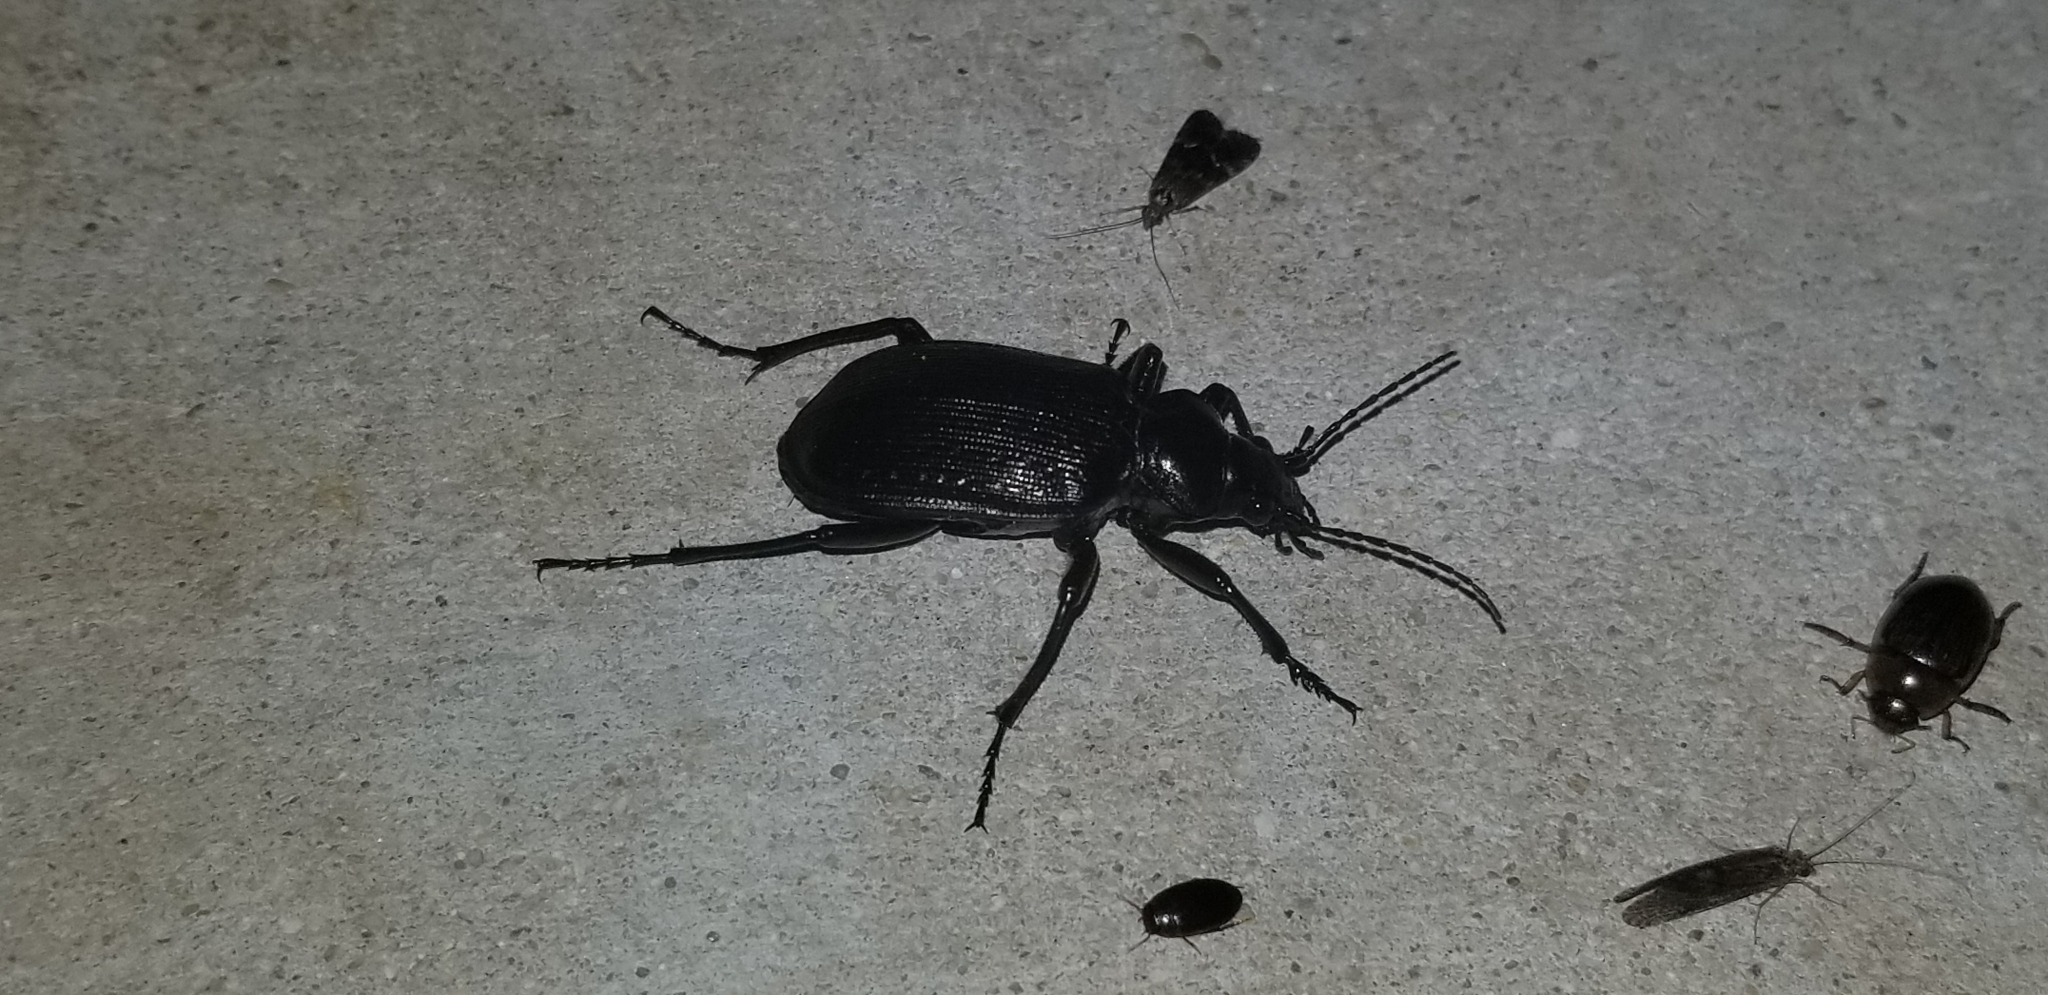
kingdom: Animalia
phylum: Arthropoda
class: Insecta
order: Coleoptera
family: Carabidae
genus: Calosoma
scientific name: Calosoma sayi
